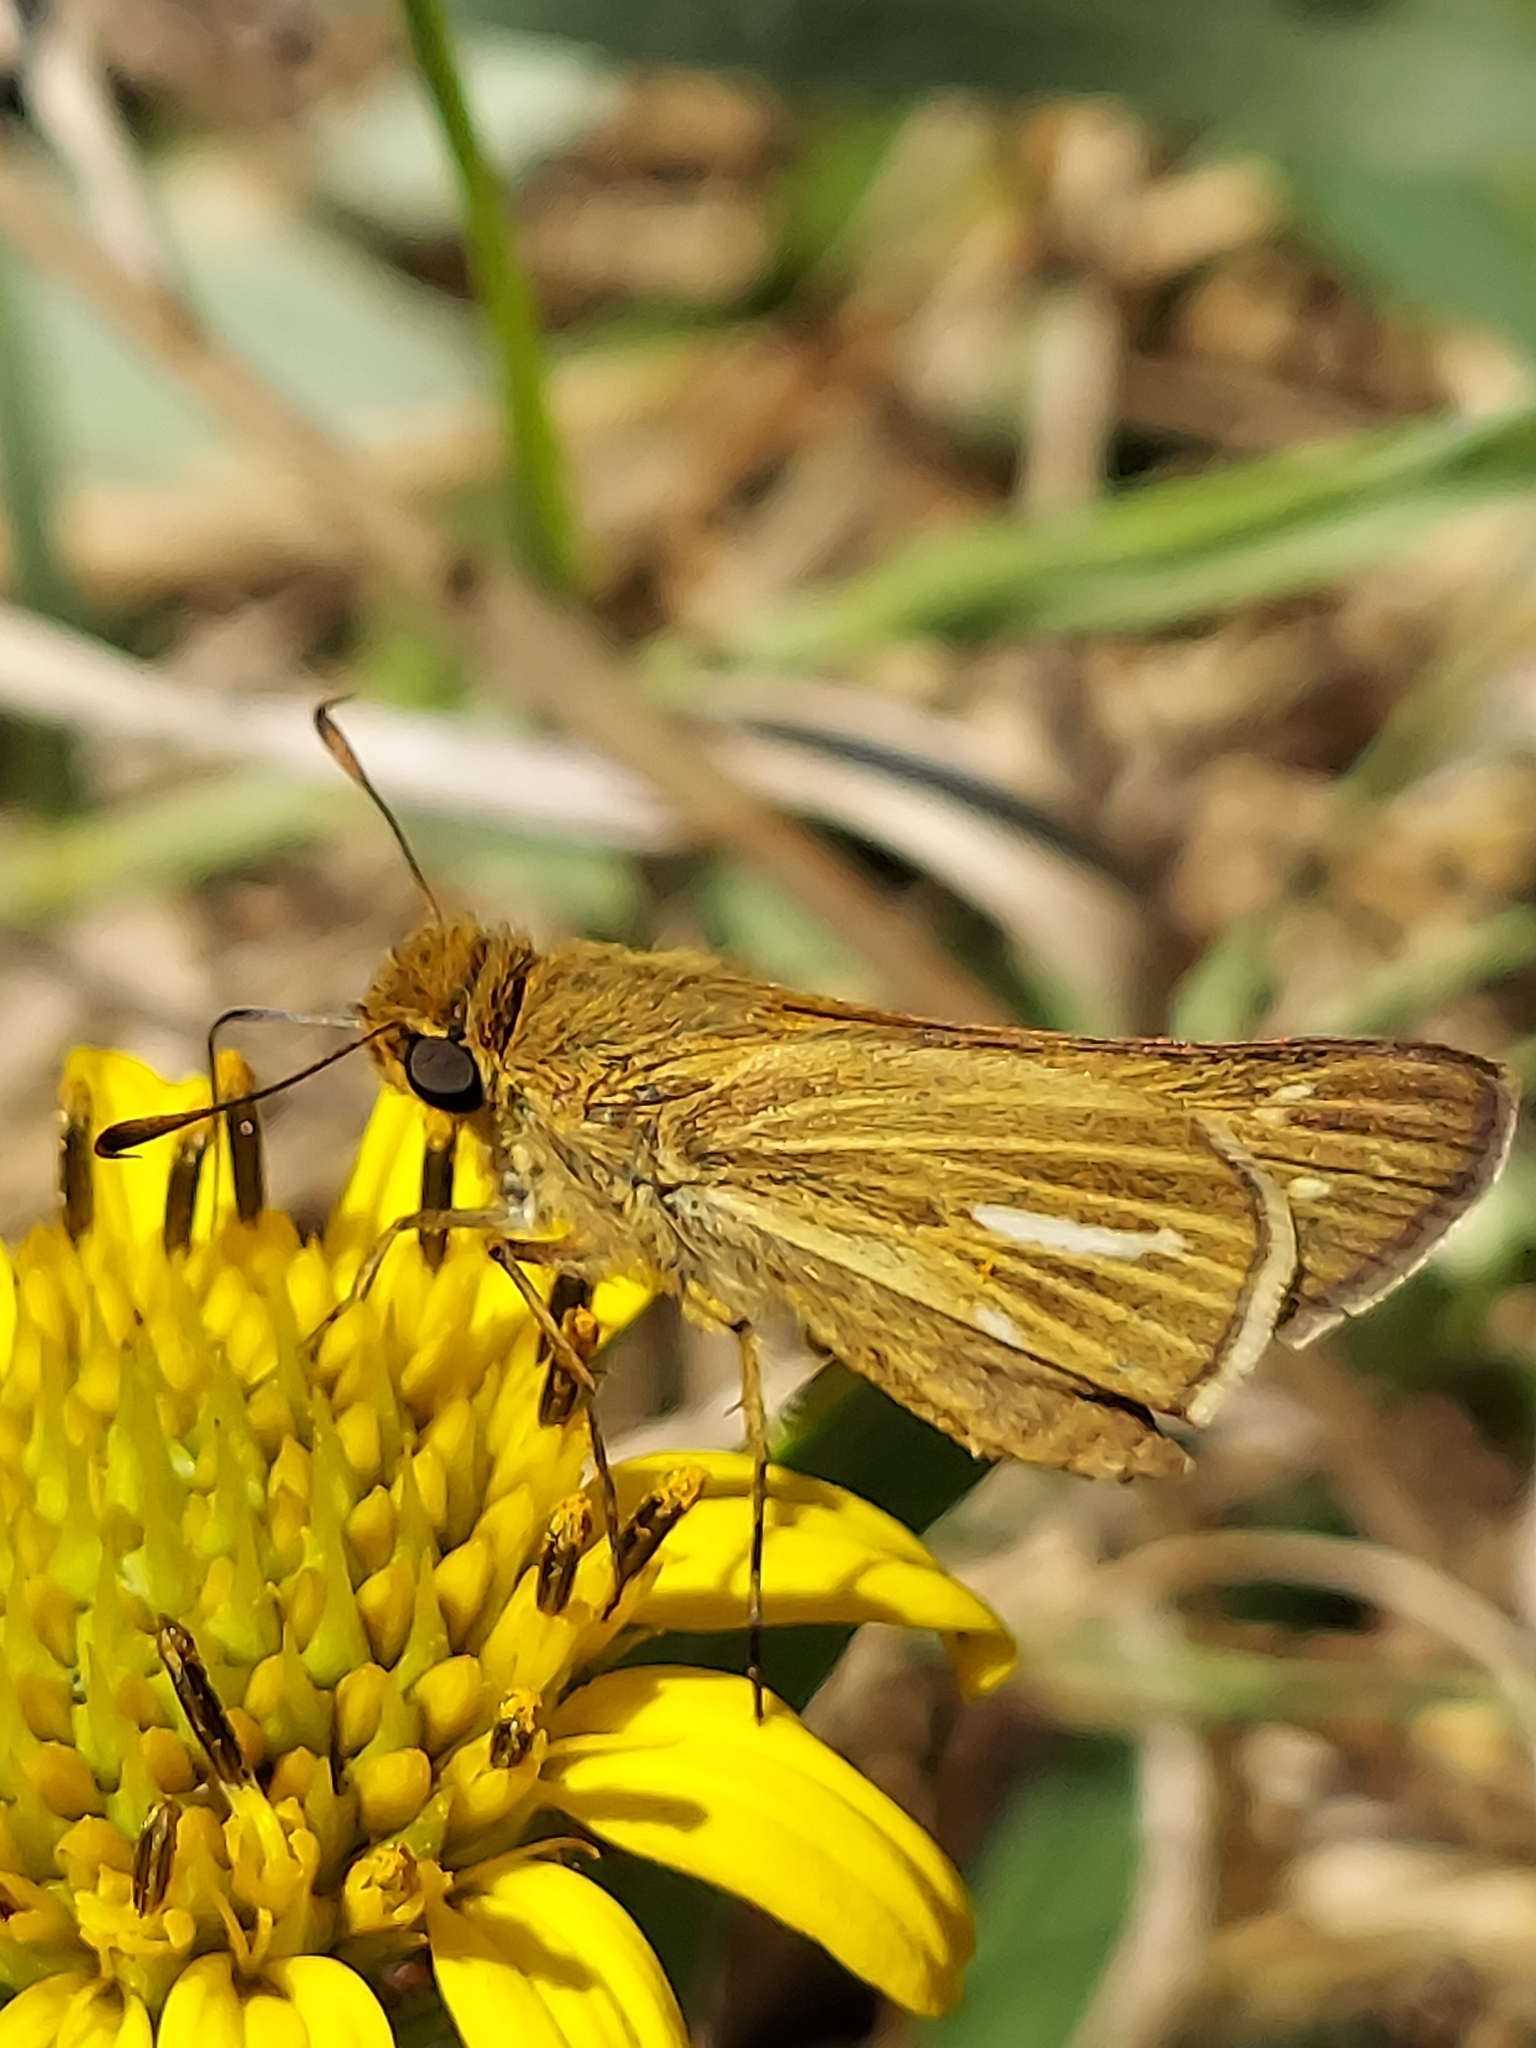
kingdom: Animalia
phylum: Arthropoda
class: Insecta
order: Lepidoptera
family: Hesperiidae
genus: Panoquina
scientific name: Panoquina panoquin
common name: Salt marsh skipper
